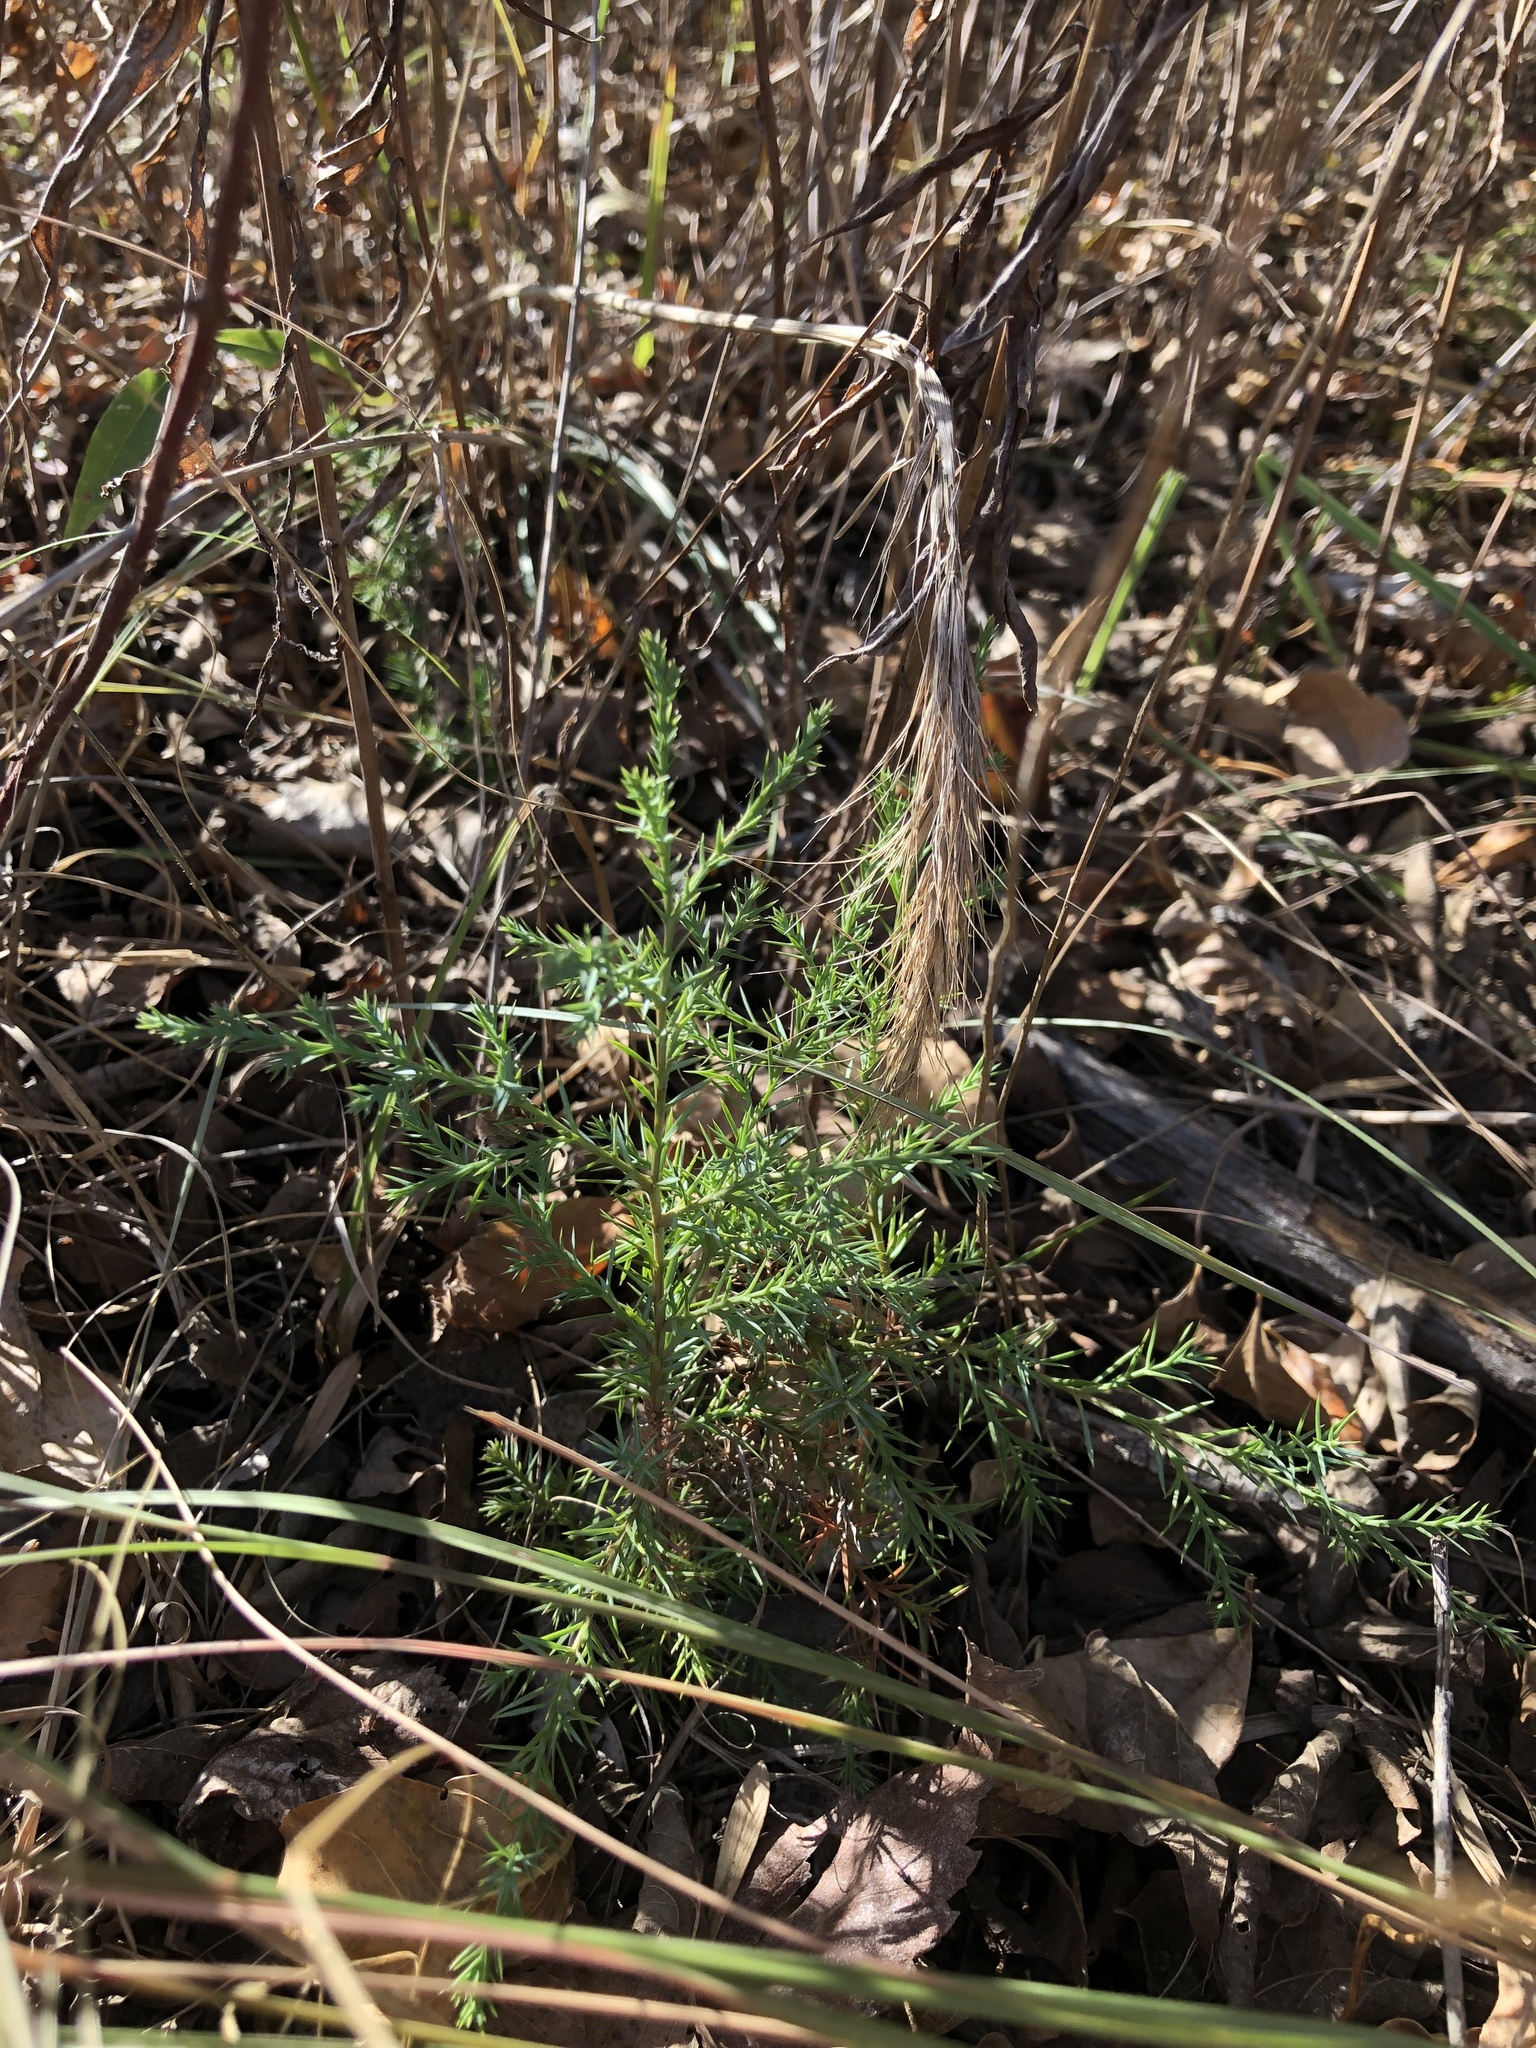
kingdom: Plantae
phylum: Tracheophyta
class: Pinopsida
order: Pinales
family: Cupressaceae
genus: Juniperus
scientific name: Juniperus virginiana
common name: Red juniper
